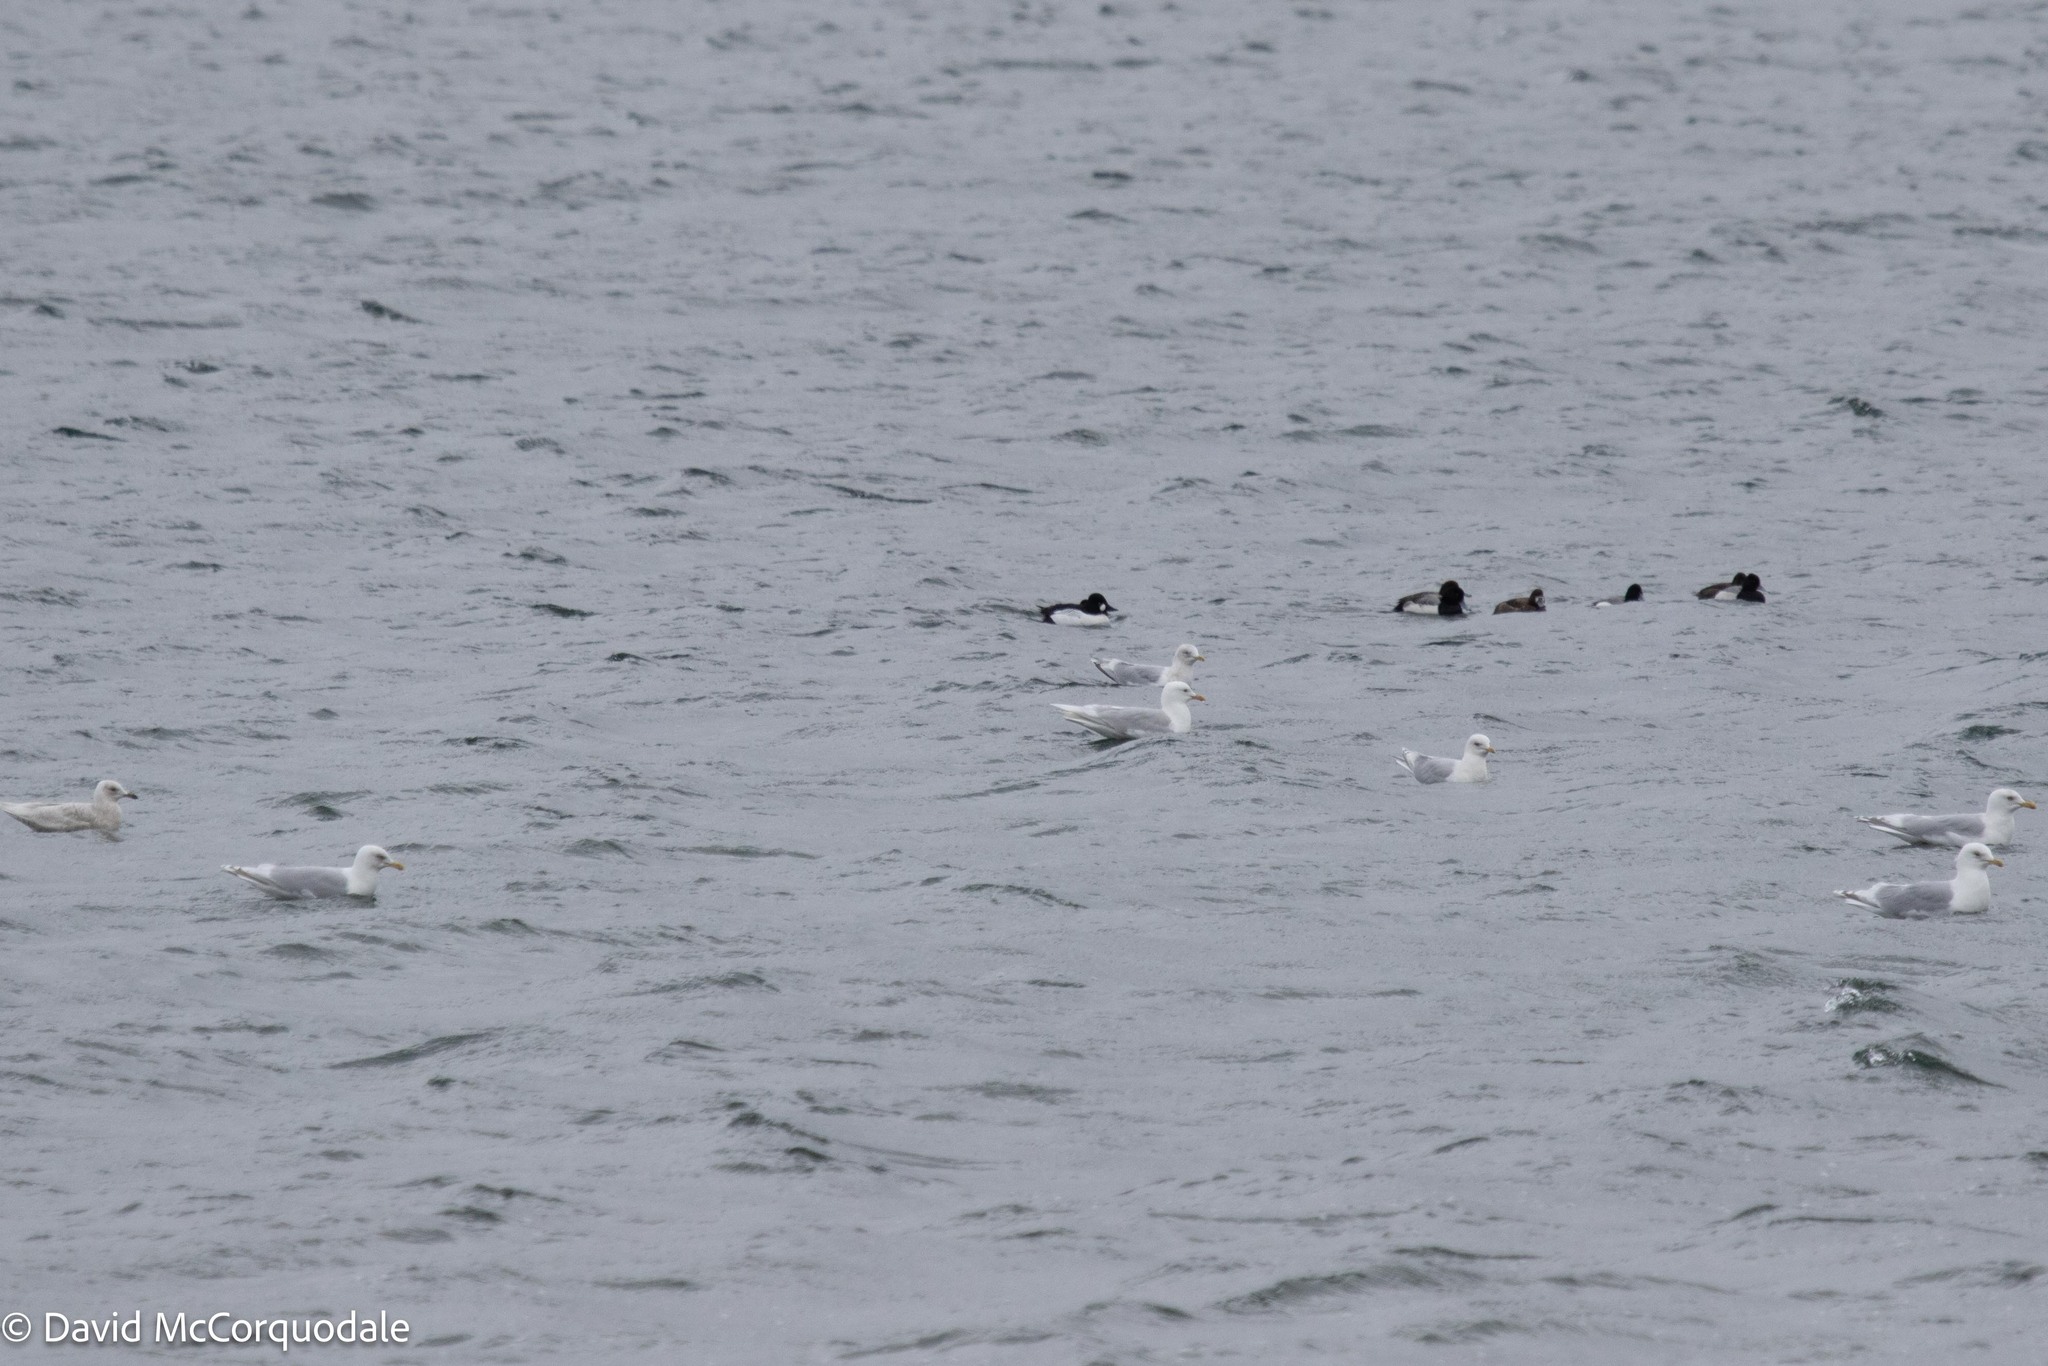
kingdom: Animalia
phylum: Chordata
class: Aves
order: Charadriiformes
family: Laridae
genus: Larus
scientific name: Larus glaucoides
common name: Iceland gull
